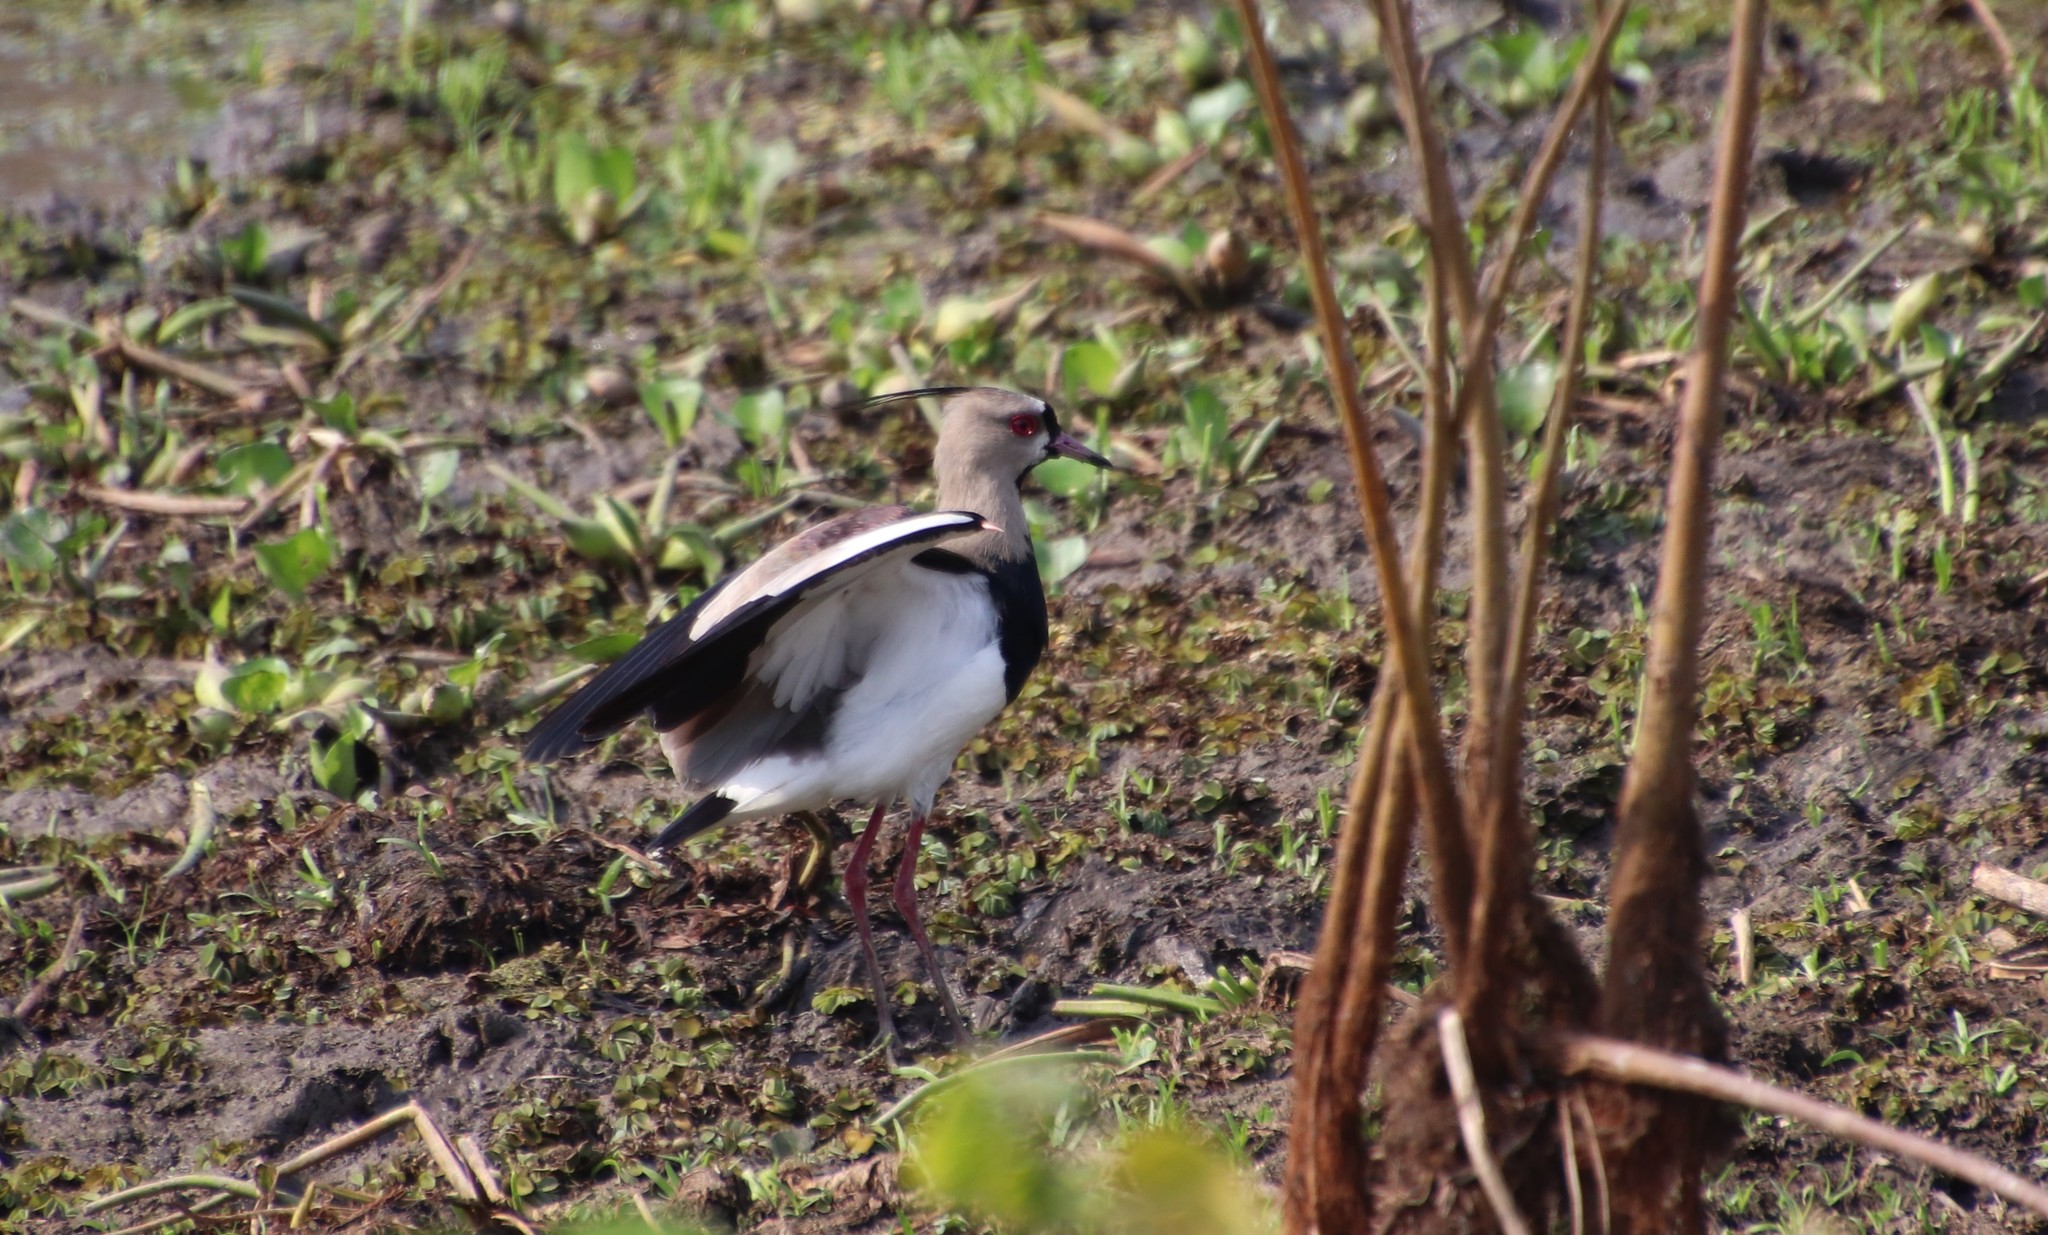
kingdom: Animalia
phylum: Chordata
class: Aves
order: Charadriiformes
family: Charadriidae
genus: Vanellus
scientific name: Vanellus chilensis
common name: Southern lapwing
